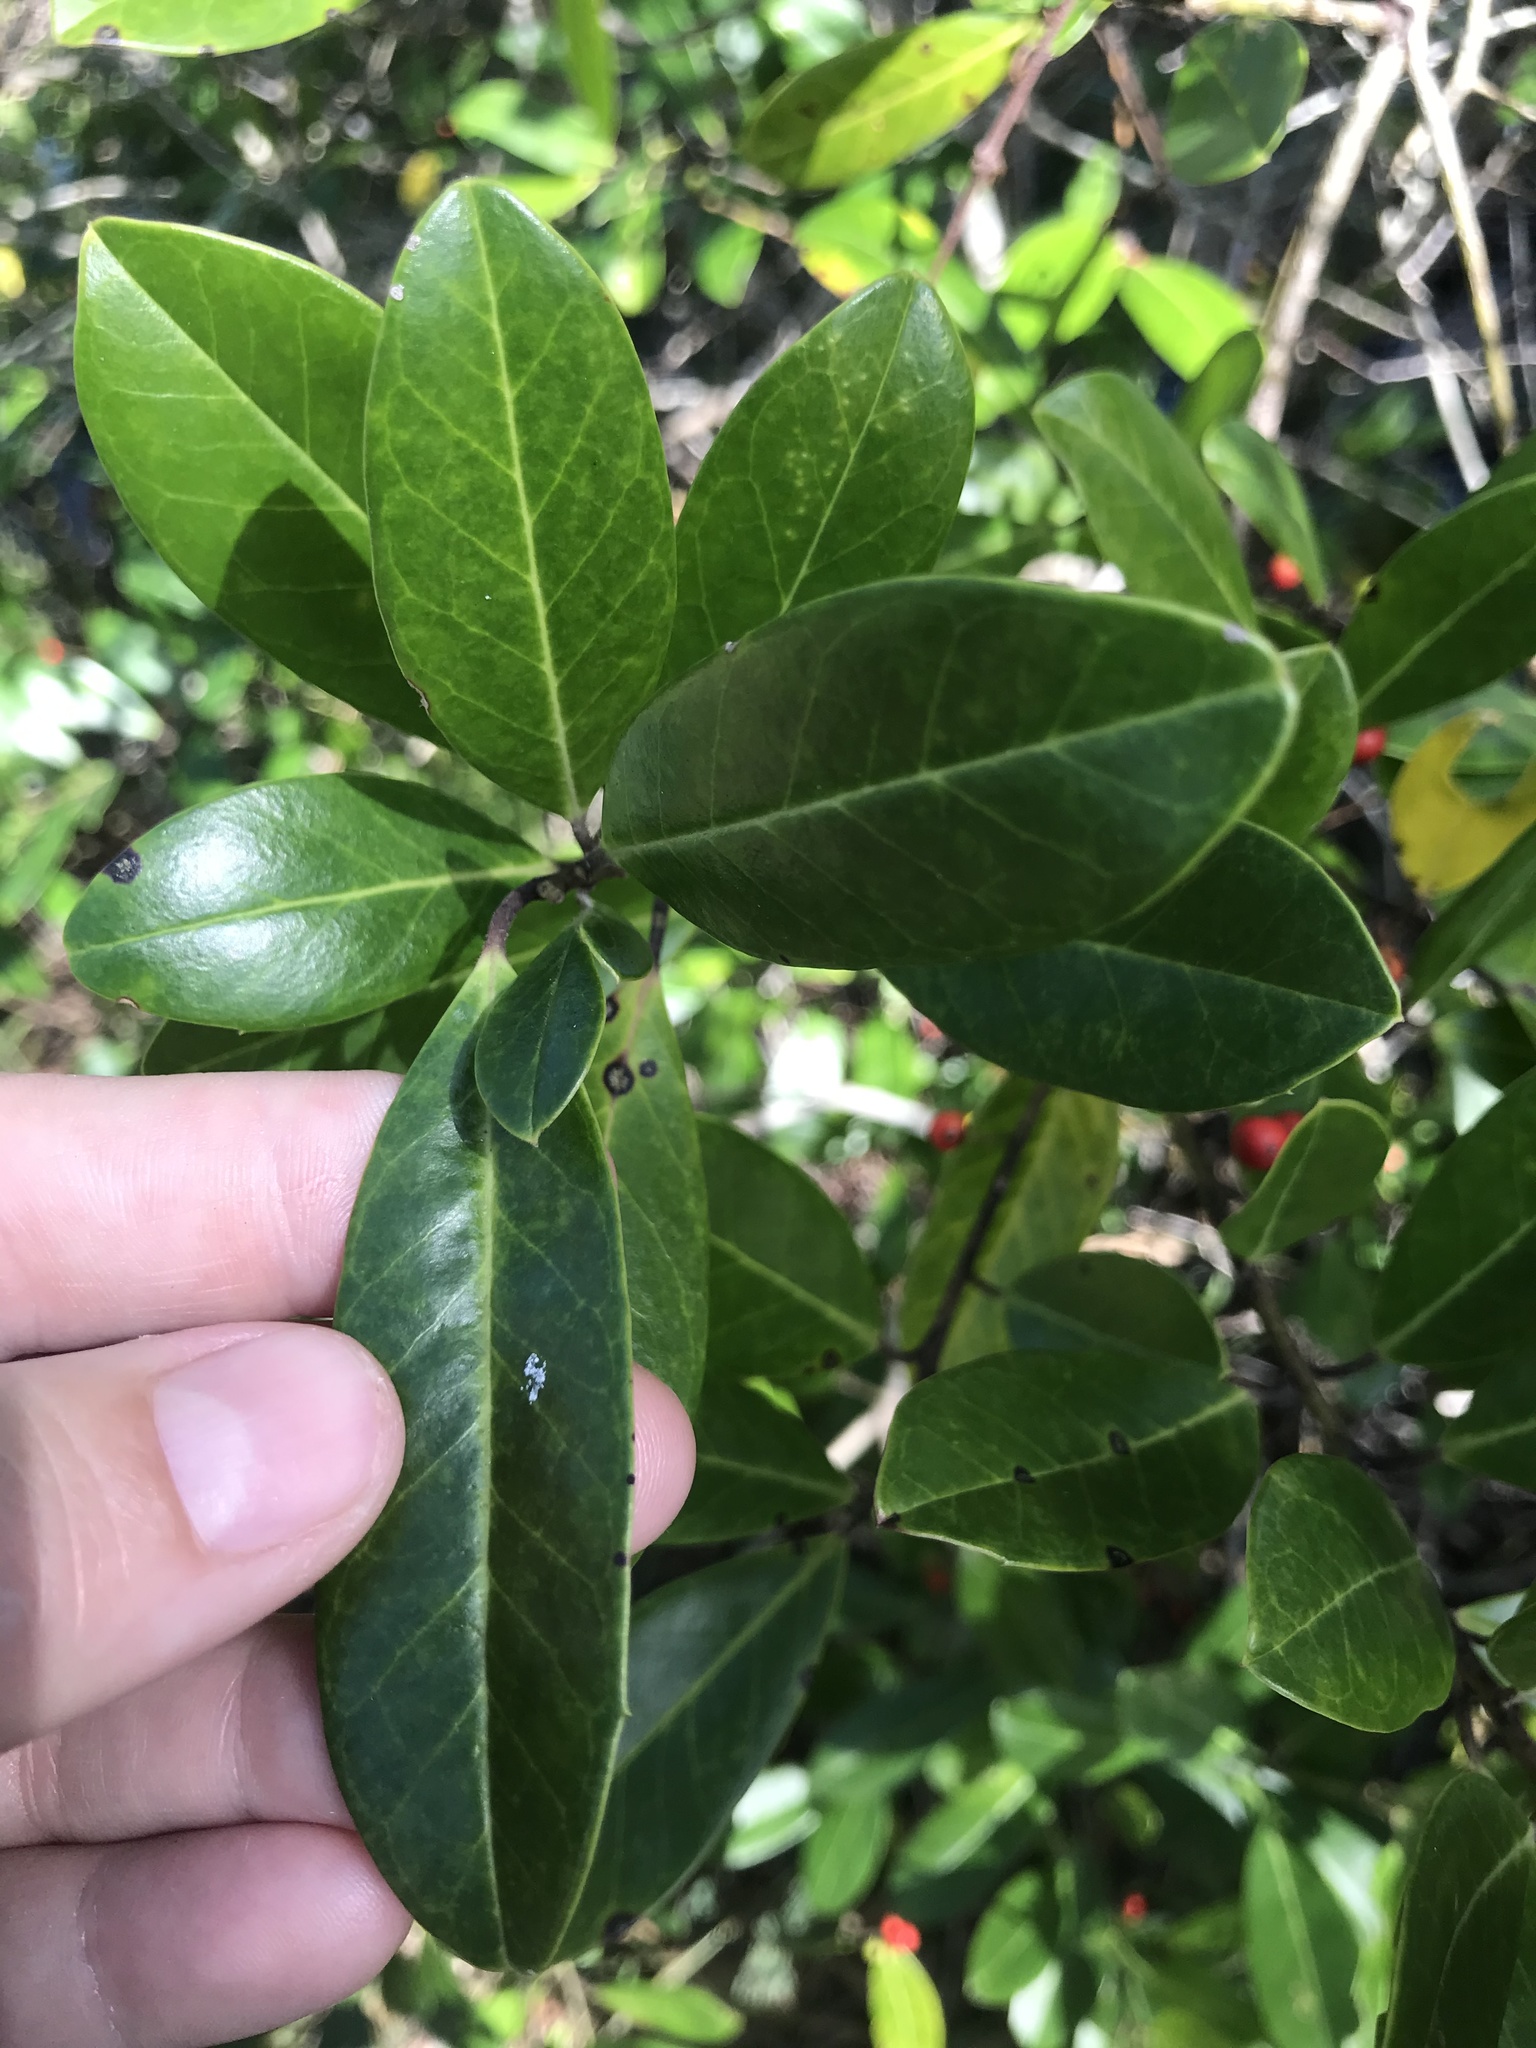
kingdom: Plantae
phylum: Tracheophyta
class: Magnoliopsida
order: Aquifoliales
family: Aquifoliaceae
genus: Ilex
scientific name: Ilex cassine
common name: Dahoon
